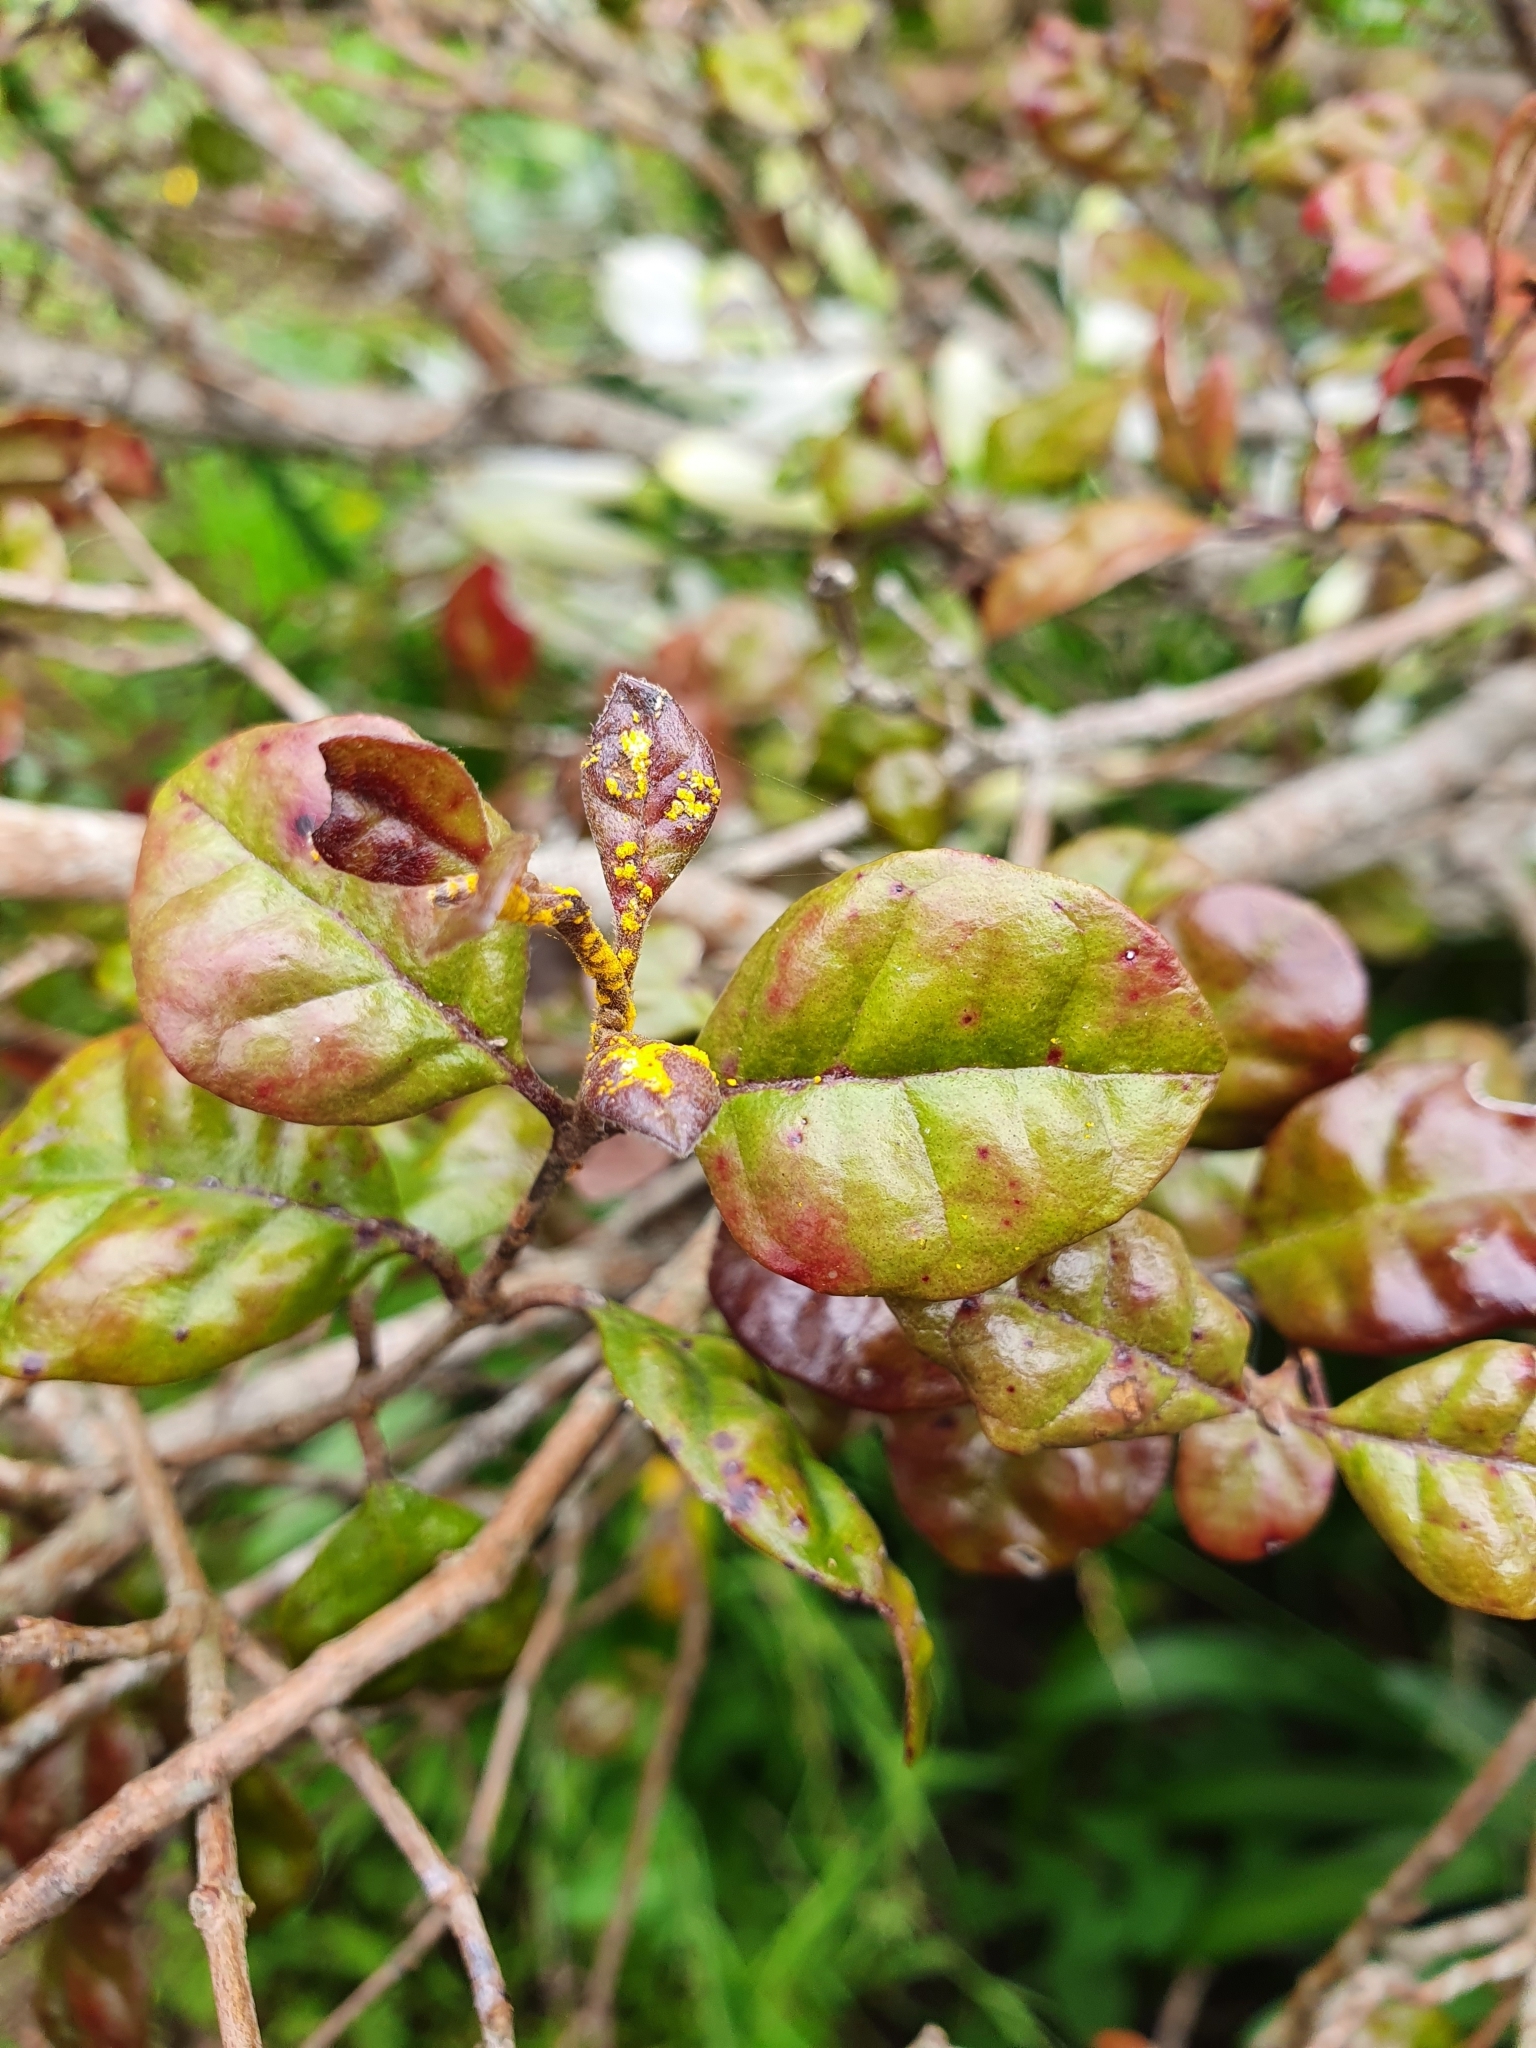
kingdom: Fungi
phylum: Basidiomycota
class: Pucciniomycetes
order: Pucciniales
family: Sphaerophragmiaceae
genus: Austropuccinia
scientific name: Austropuccinia psidii
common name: Myrtle rust
